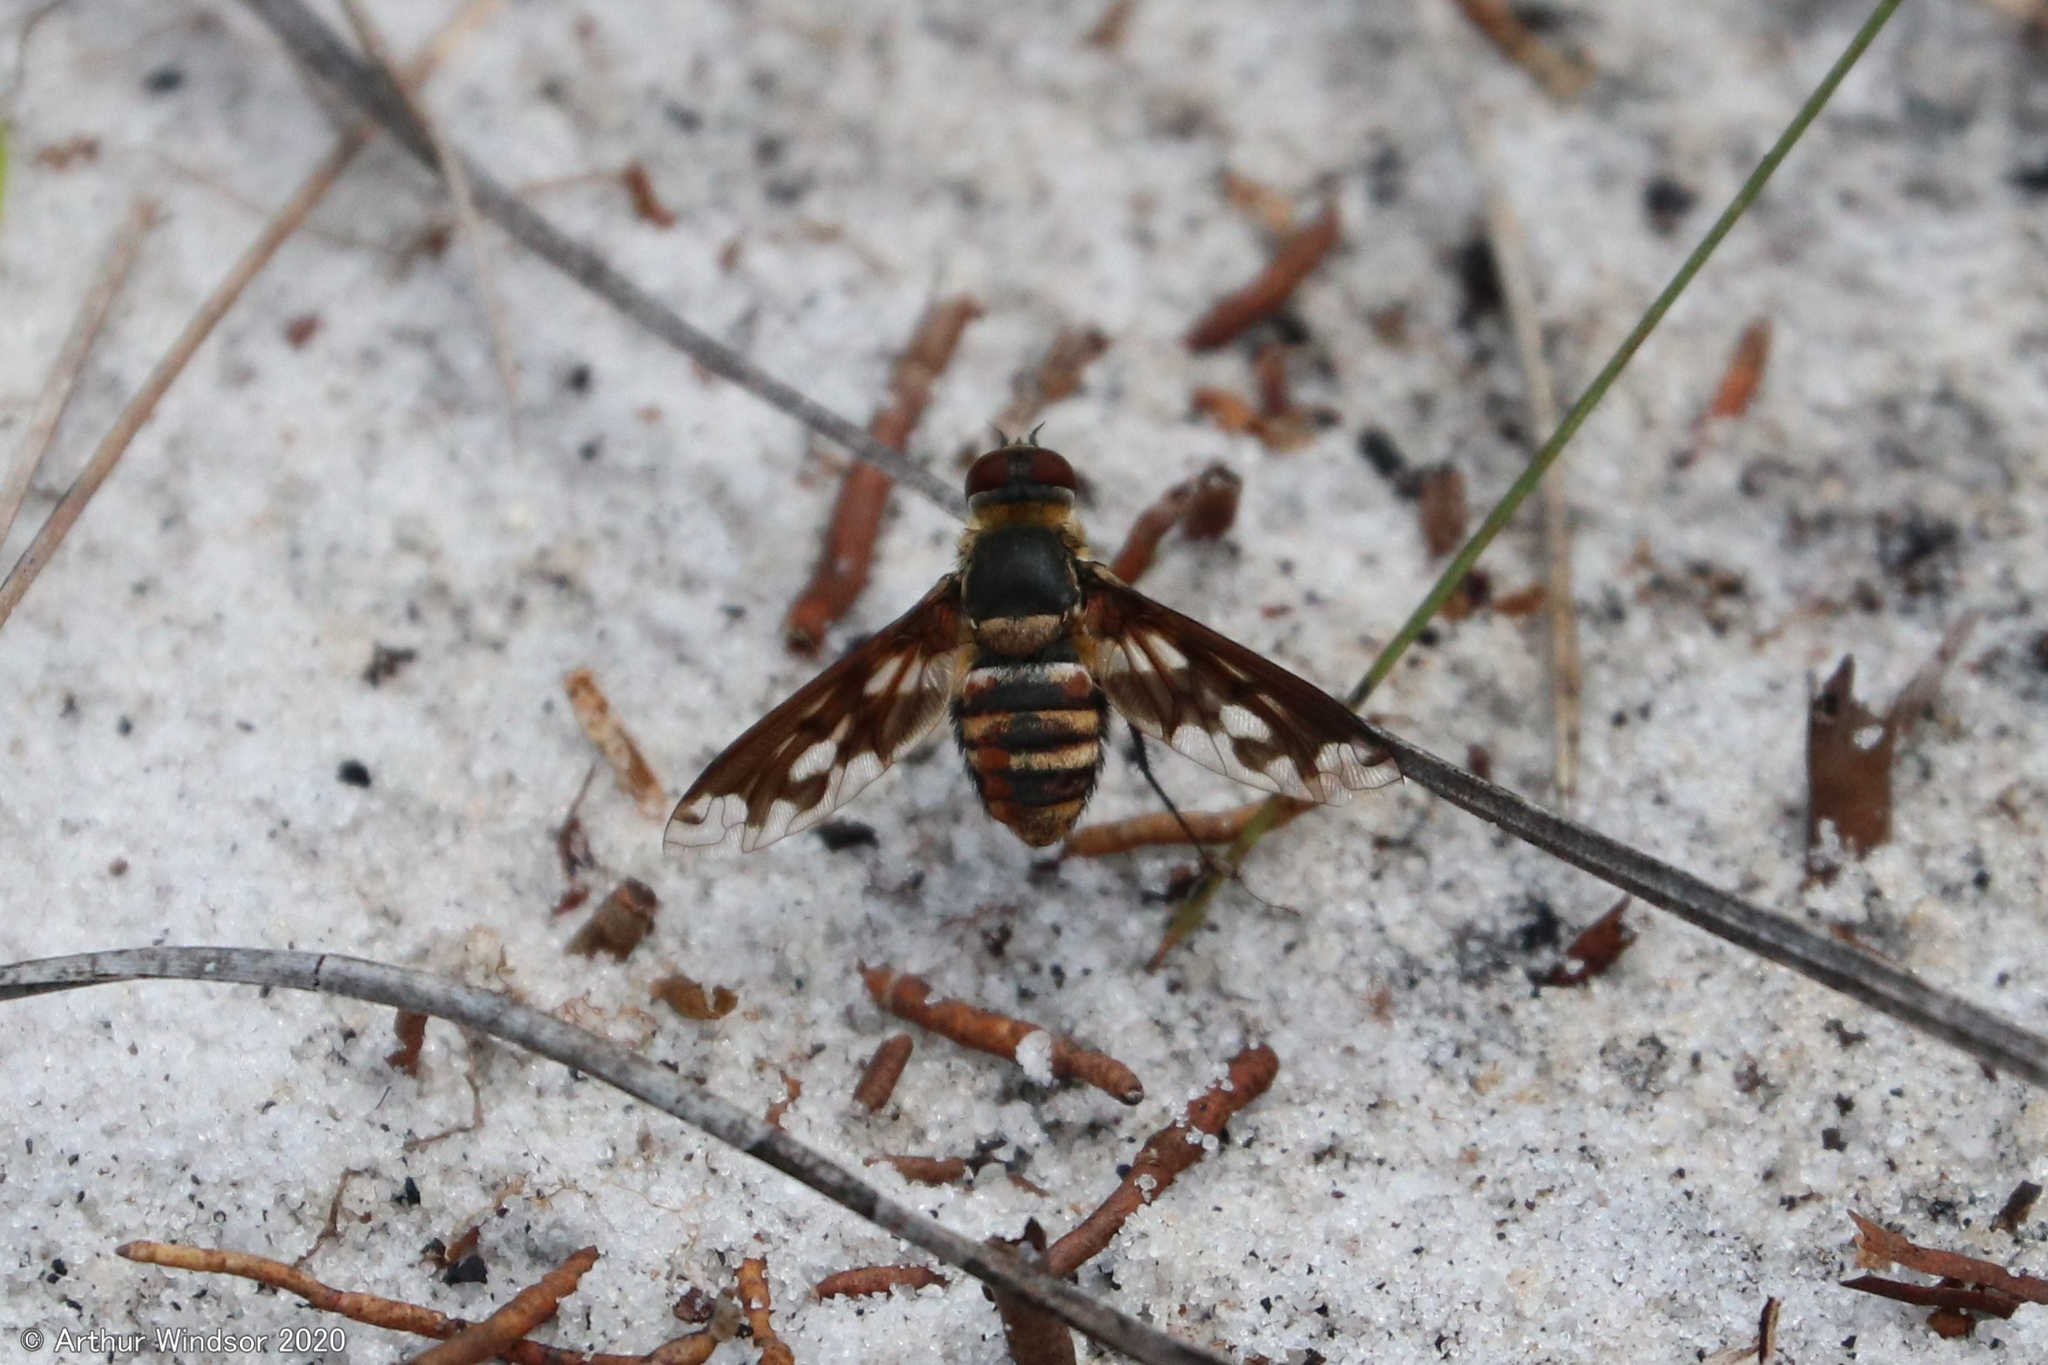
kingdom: Animalia
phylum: Arthropoda
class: Insecta
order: Diptera
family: Bombyliidae
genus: Exoprosopa
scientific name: Exoprosopa fascipennis
